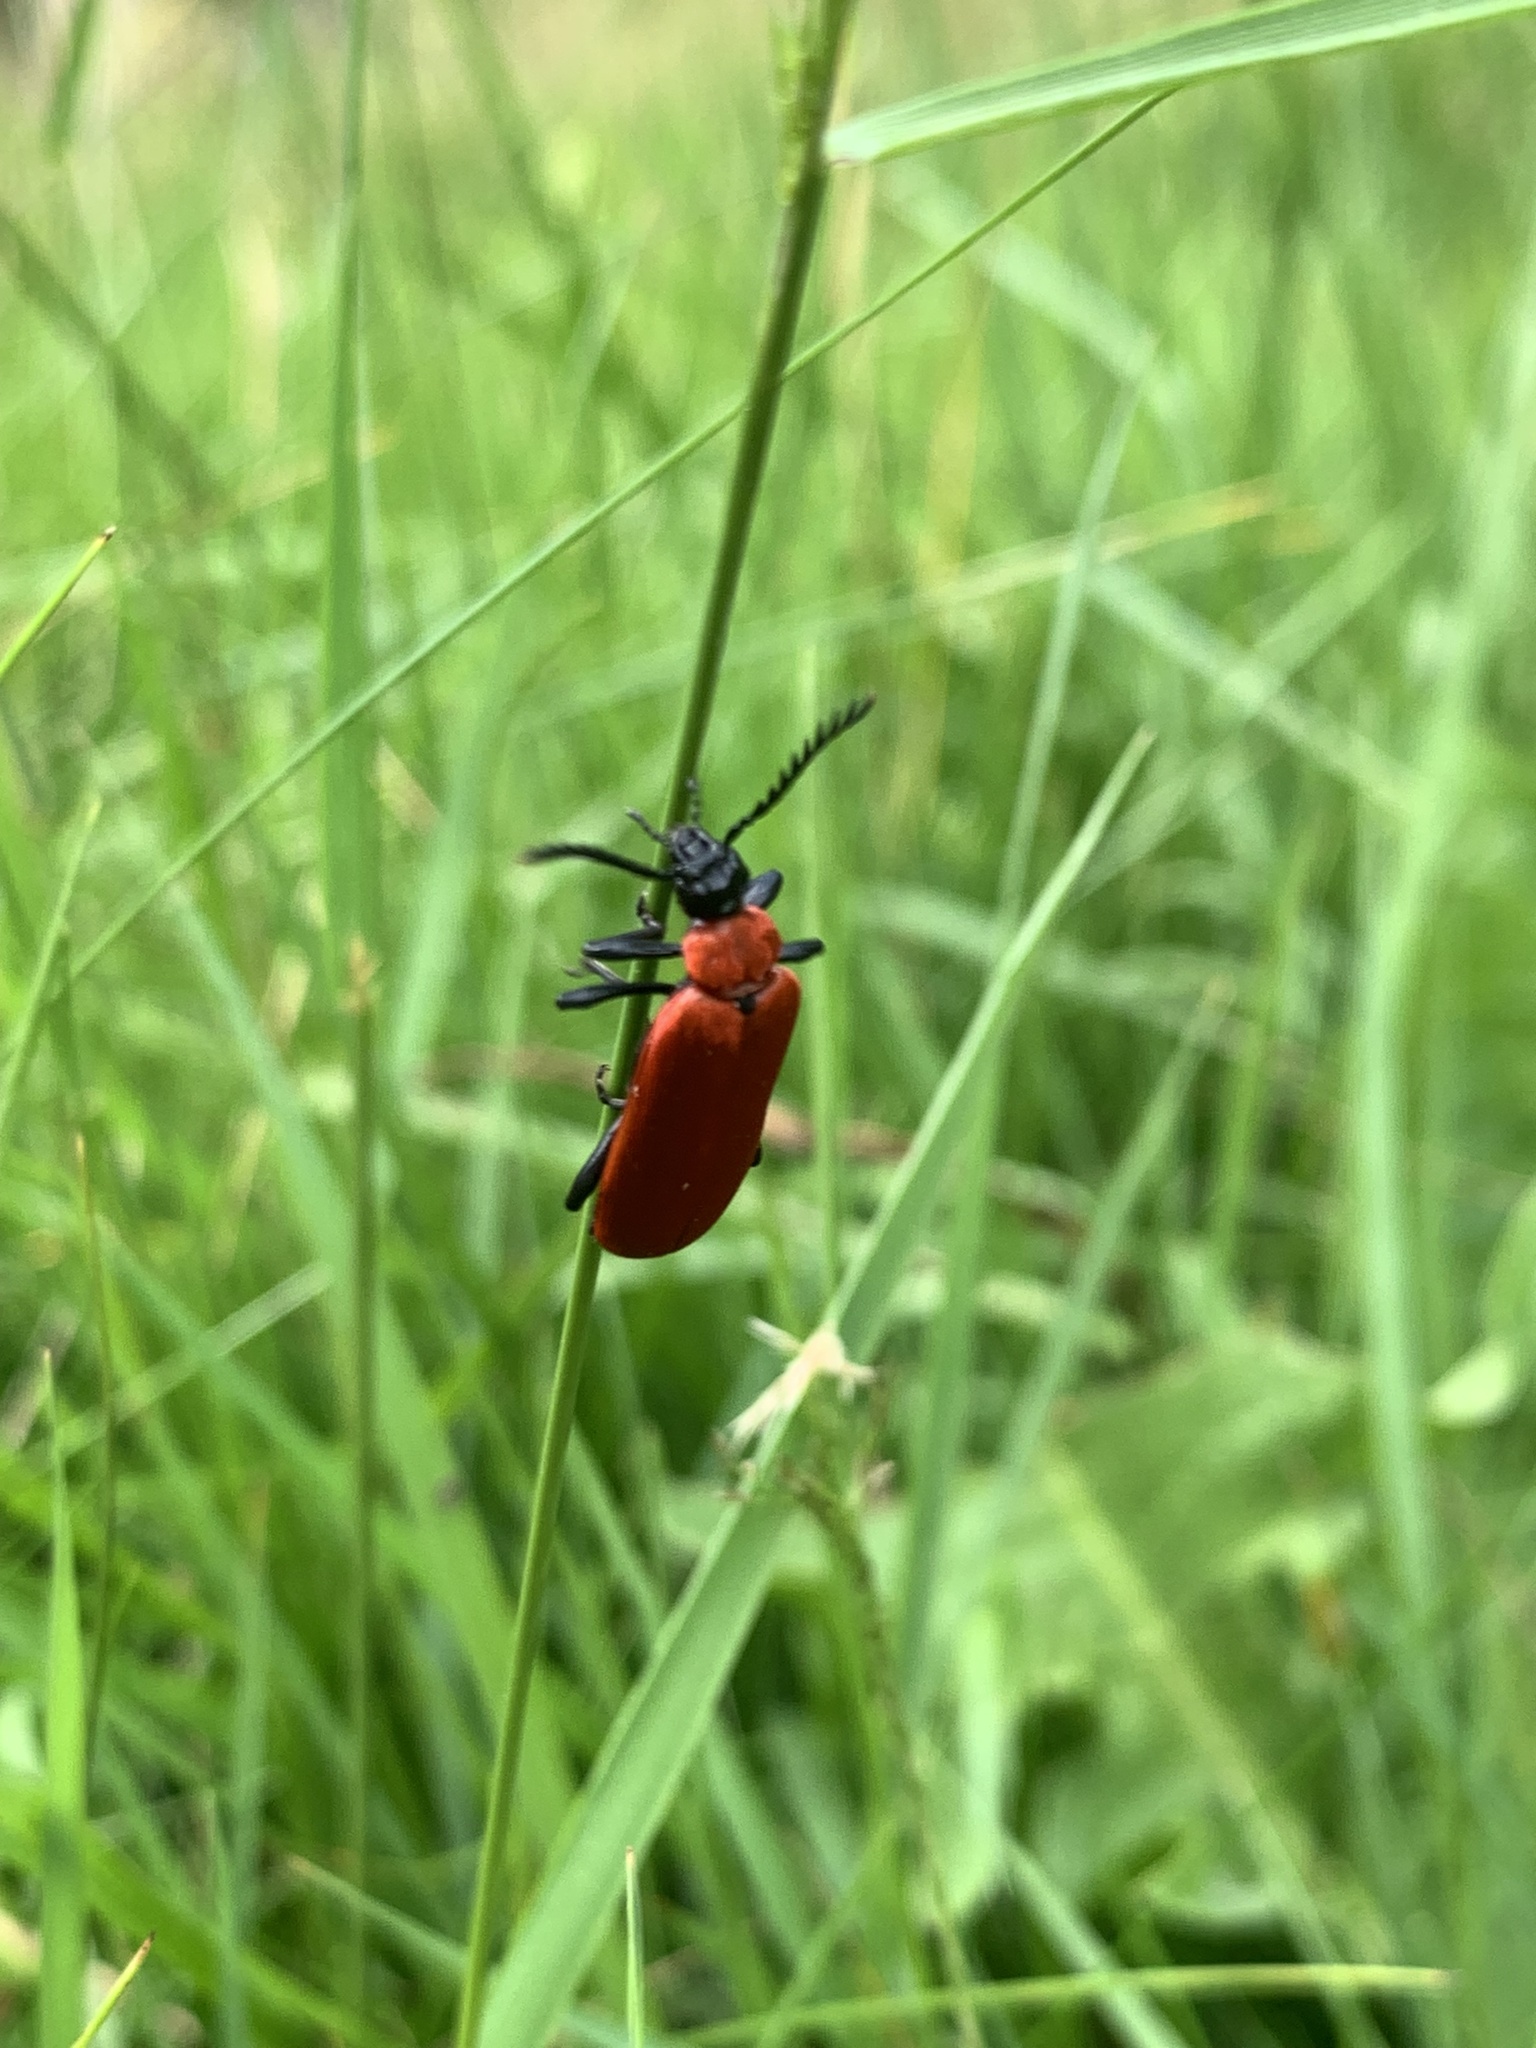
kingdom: Animalia
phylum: Arthropoda
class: Insecta
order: Coleoptera
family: Pyrochroidae
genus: Pyrochroa
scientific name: Pyrochroa coccinea
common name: Black-headed cardinal beetle
